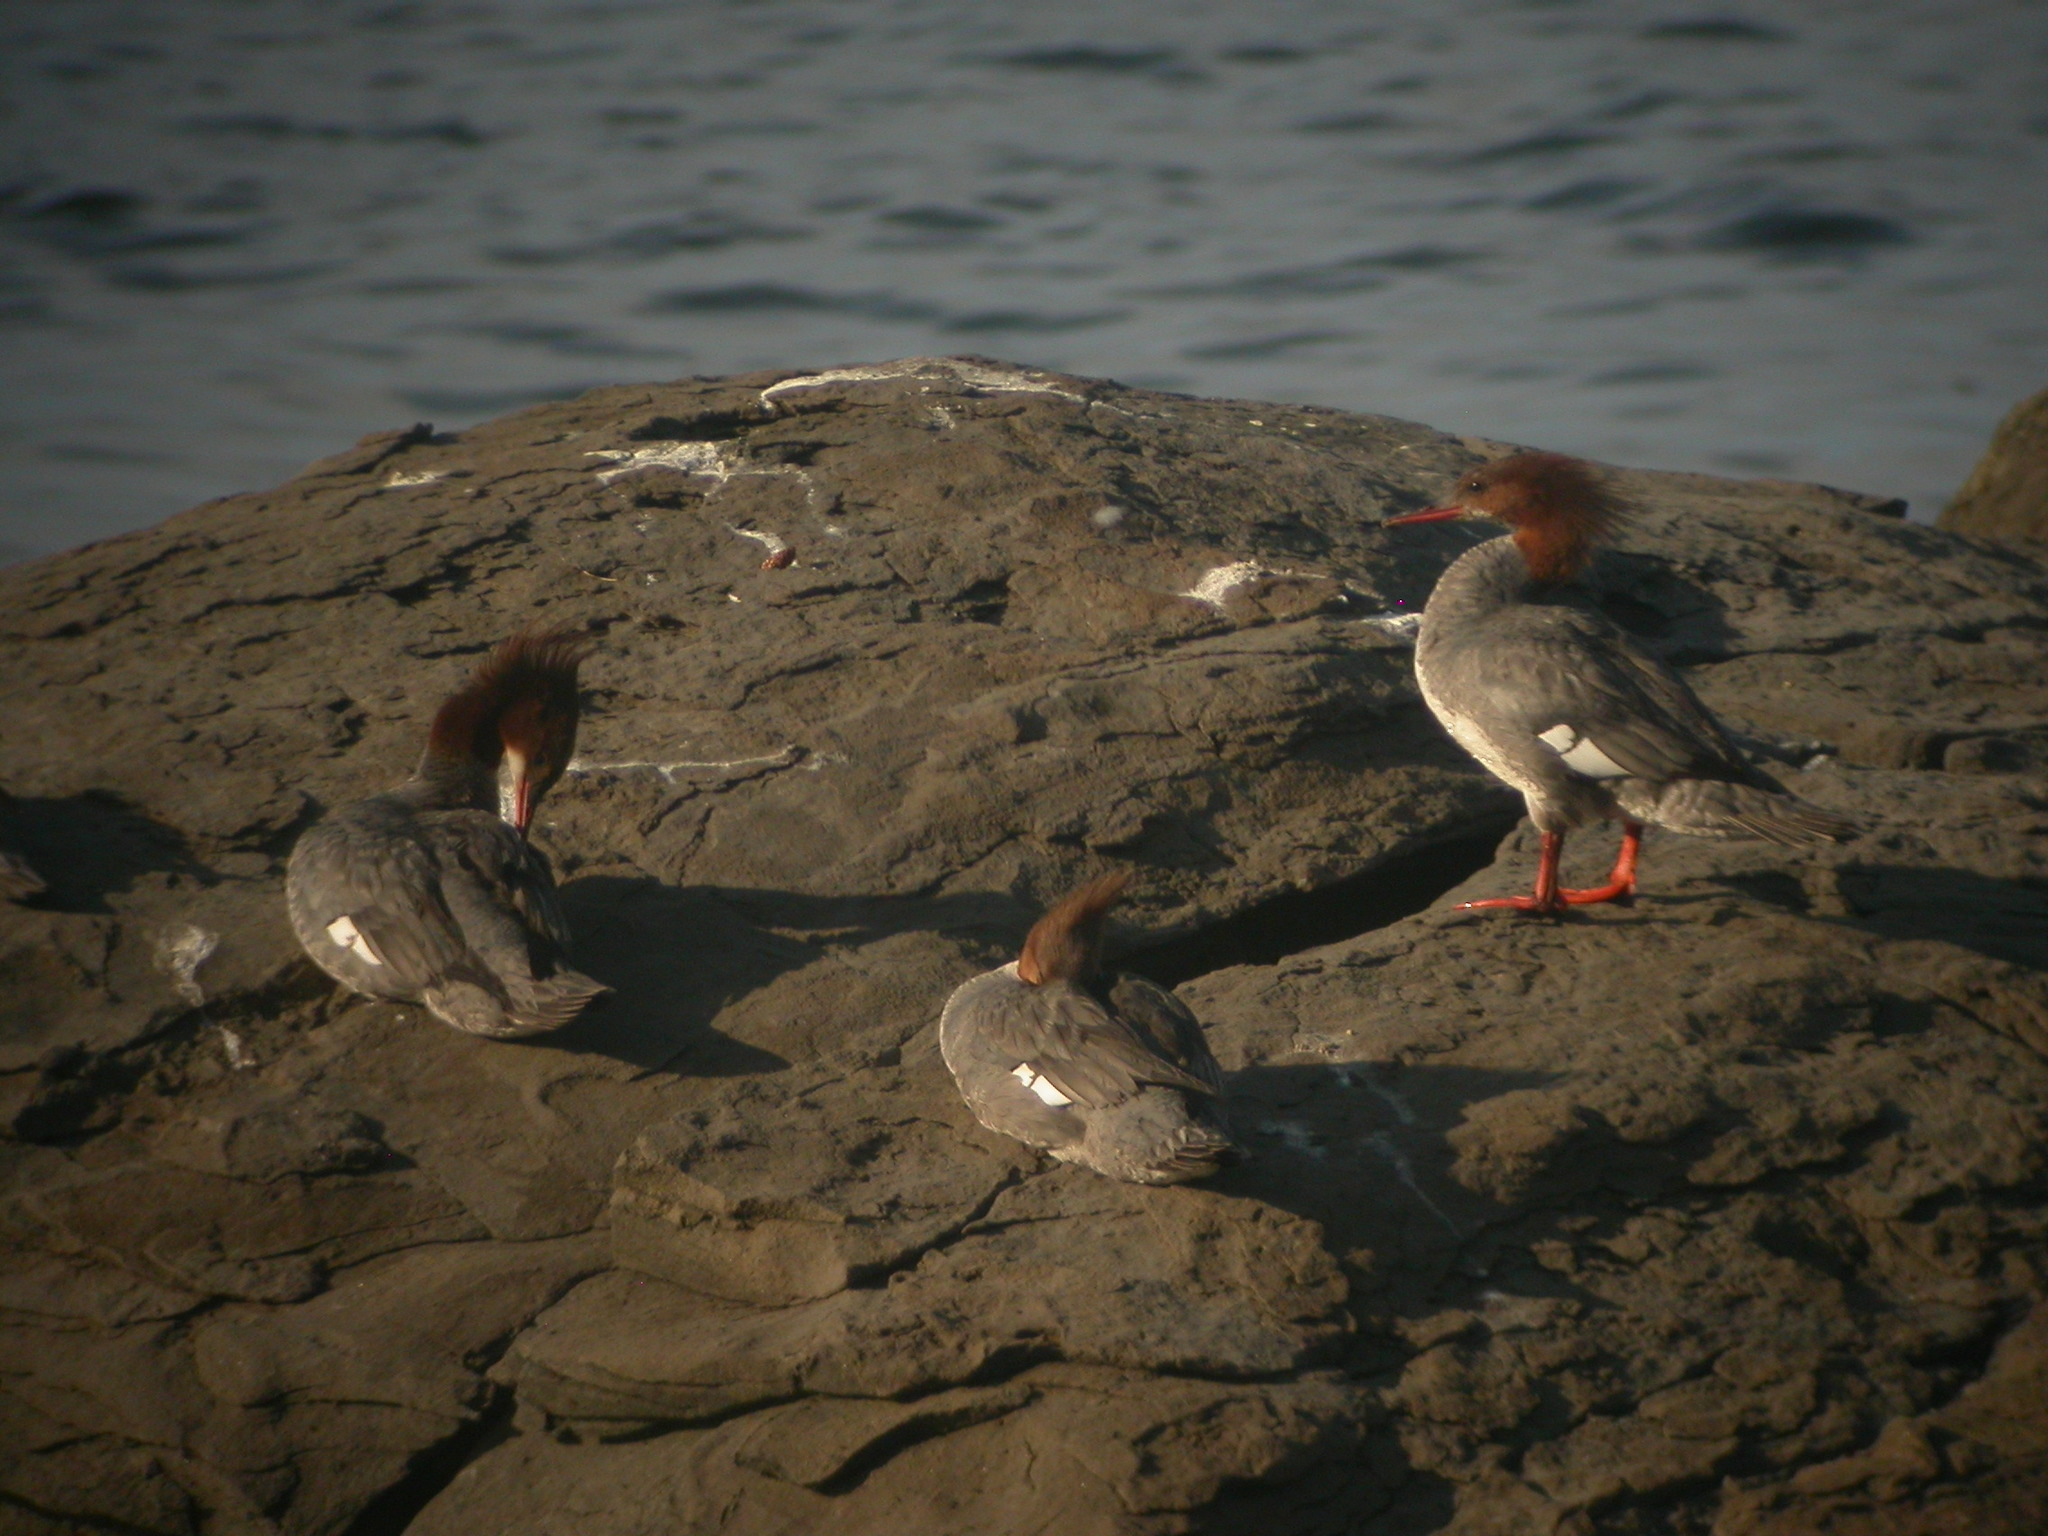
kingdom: Animalia
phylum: Chordata
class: Aves
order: Anseriformes
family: Anatidae
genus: Mergus
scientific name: Mergus merganser
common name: Common merganser
